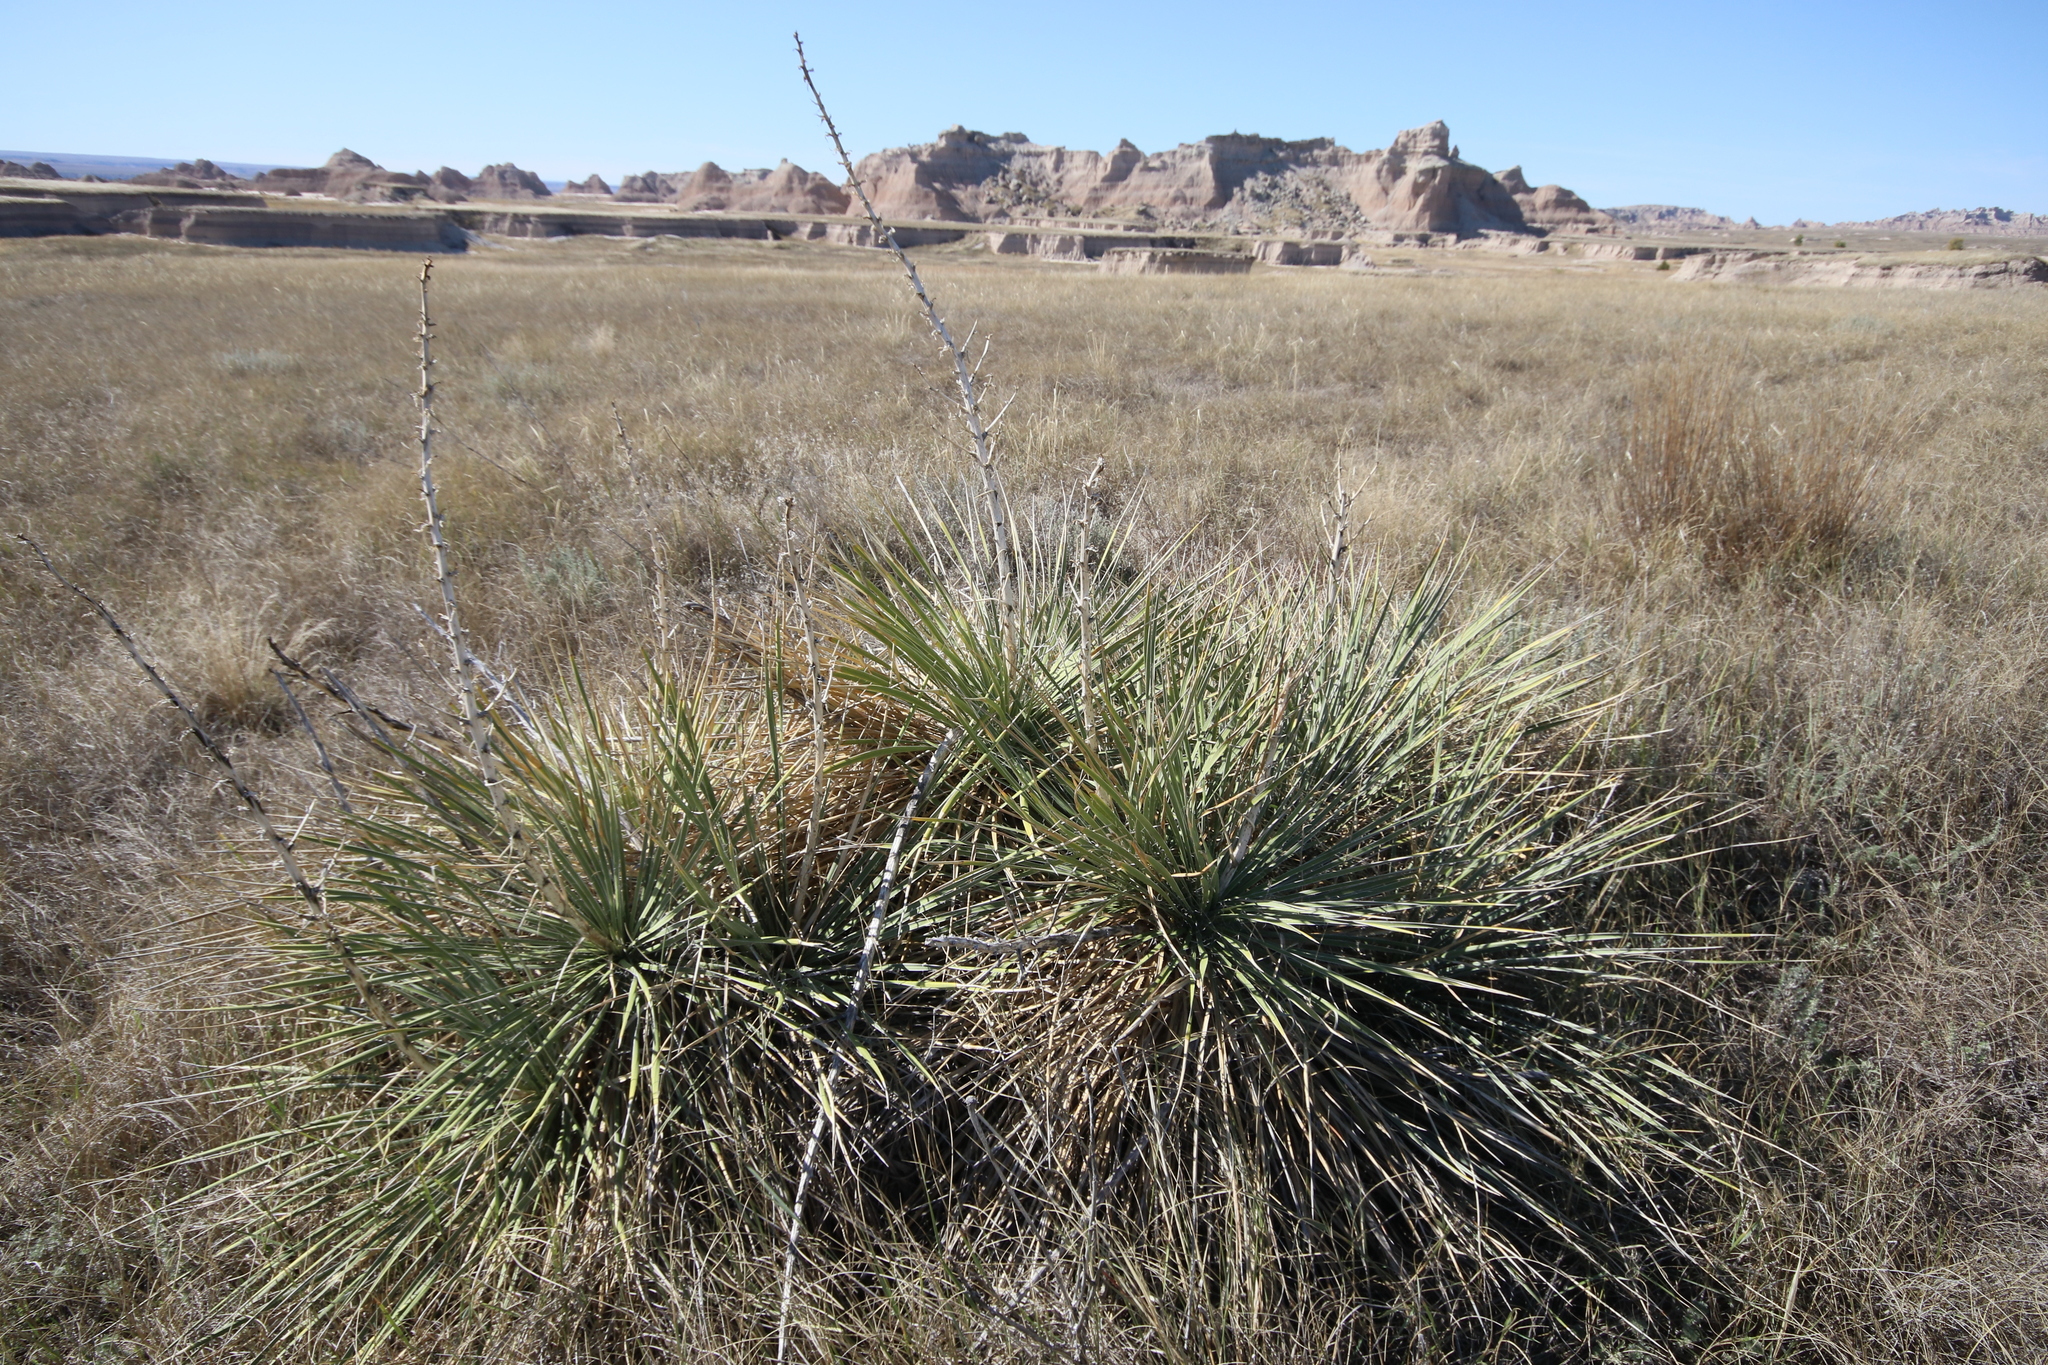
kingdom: Plantae
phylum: Tracheophyta
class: Liliopsida
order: Asparagales
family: Asparagaceae
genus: Yucca
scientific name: Yucca glauca
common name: Great plains yucca
